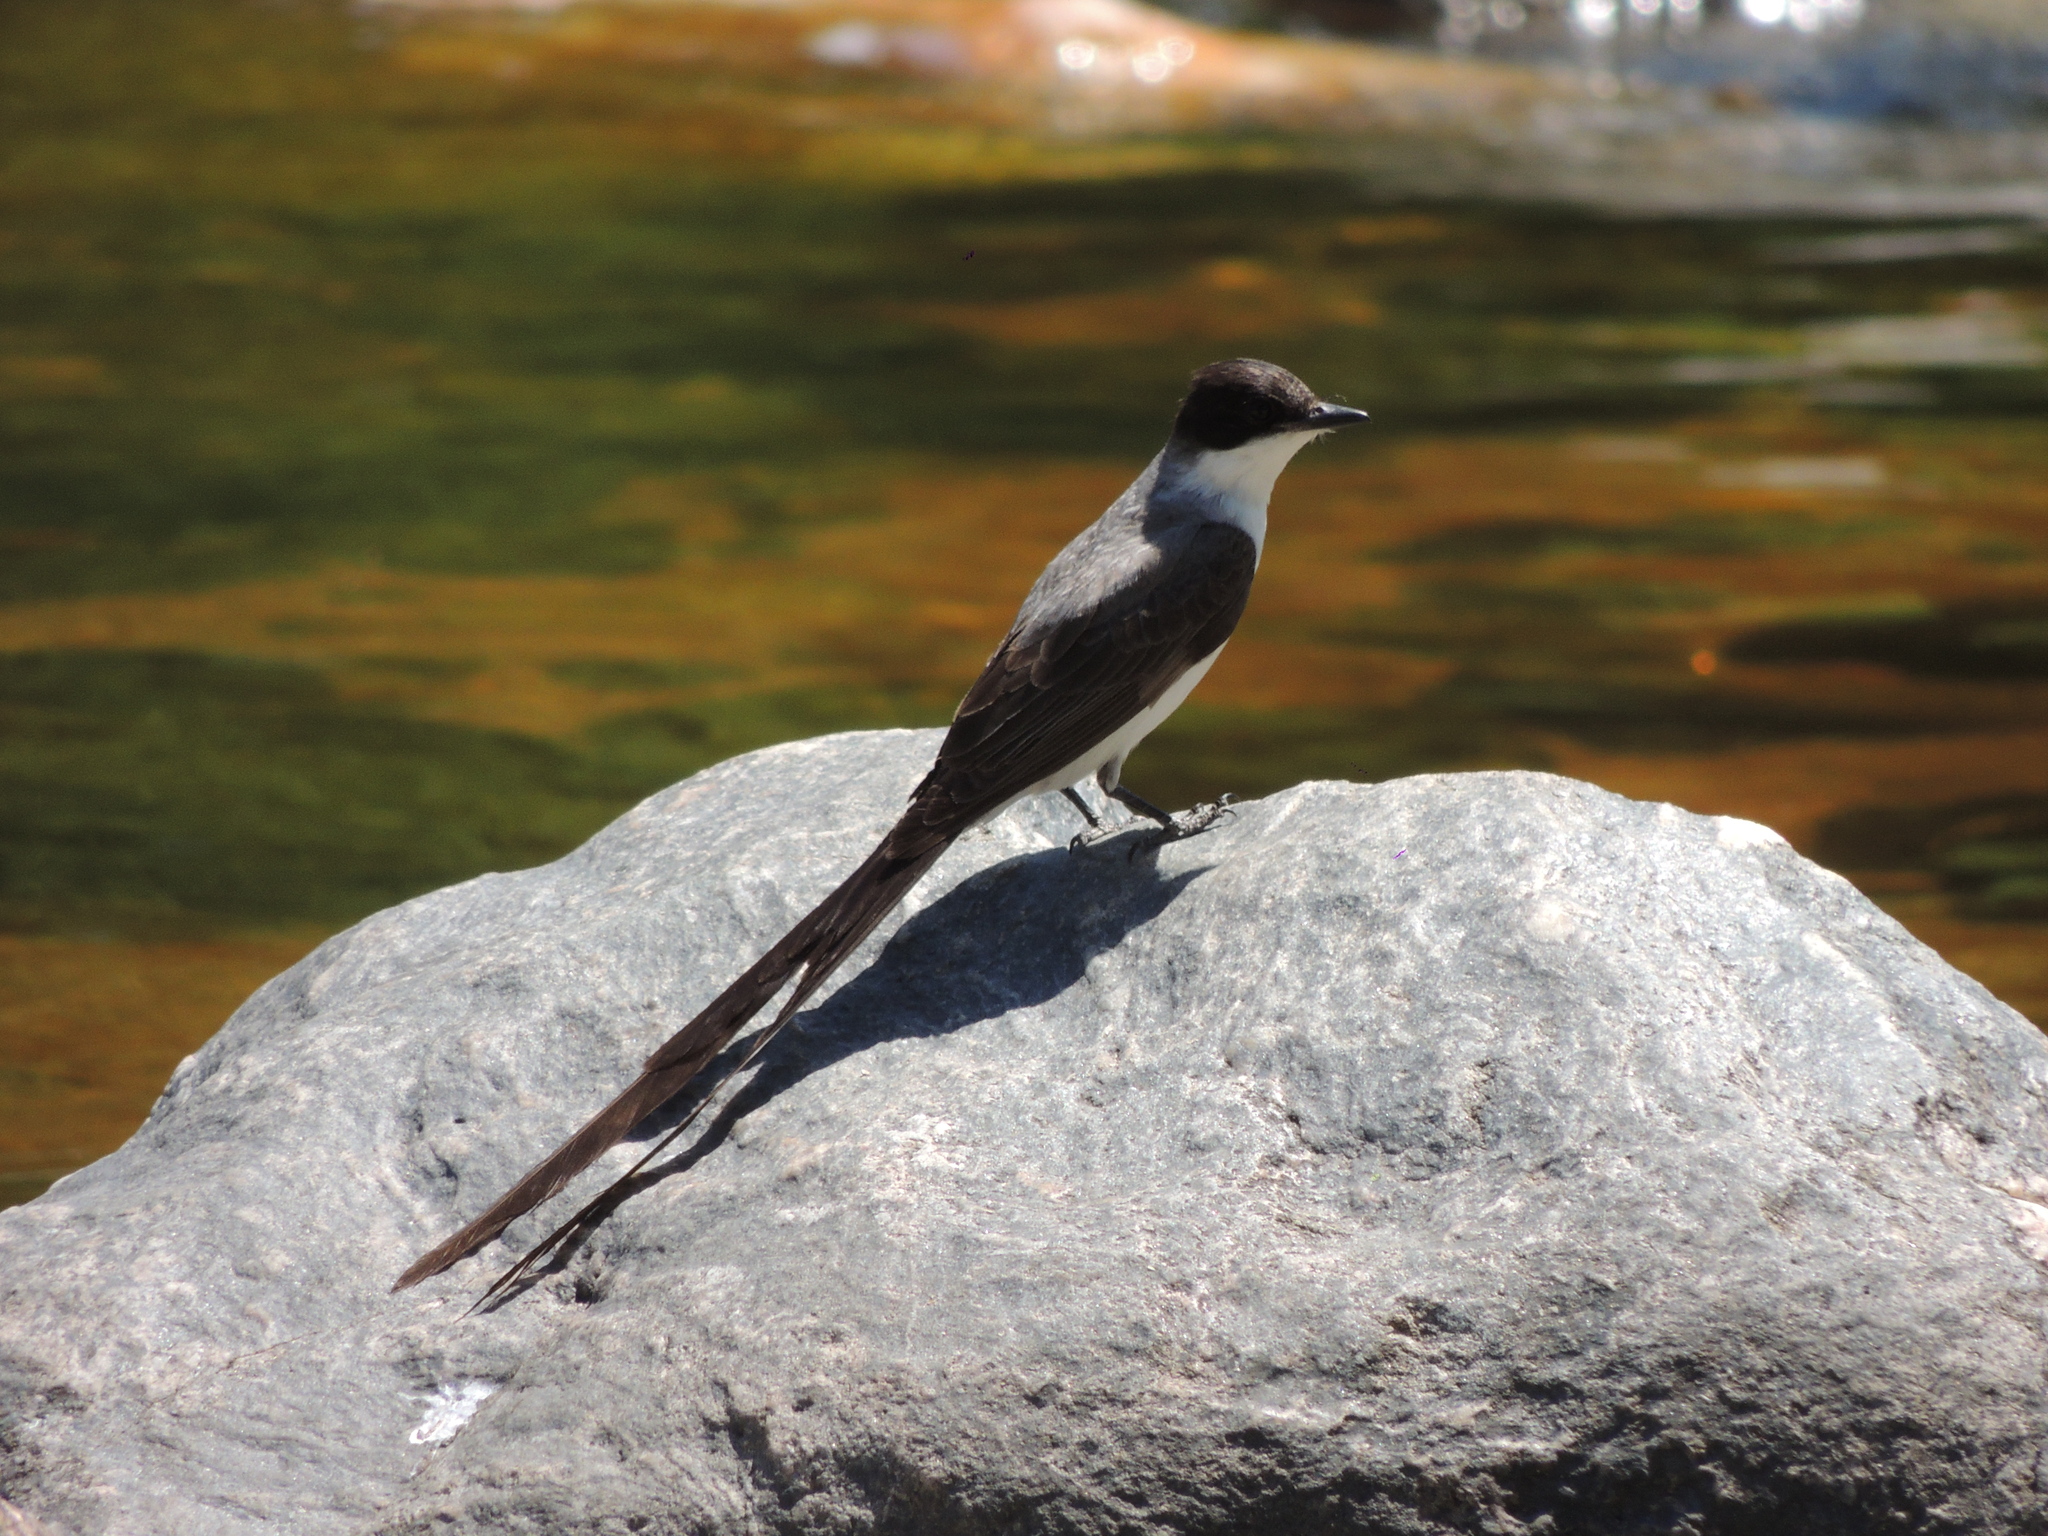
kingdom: Animalia
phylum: Chordata
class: Aves
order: Passeriformes
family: Tyrannidae
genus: Tyrannus
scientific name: Tyrannus savana
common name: Fork-tailed flycatcher
